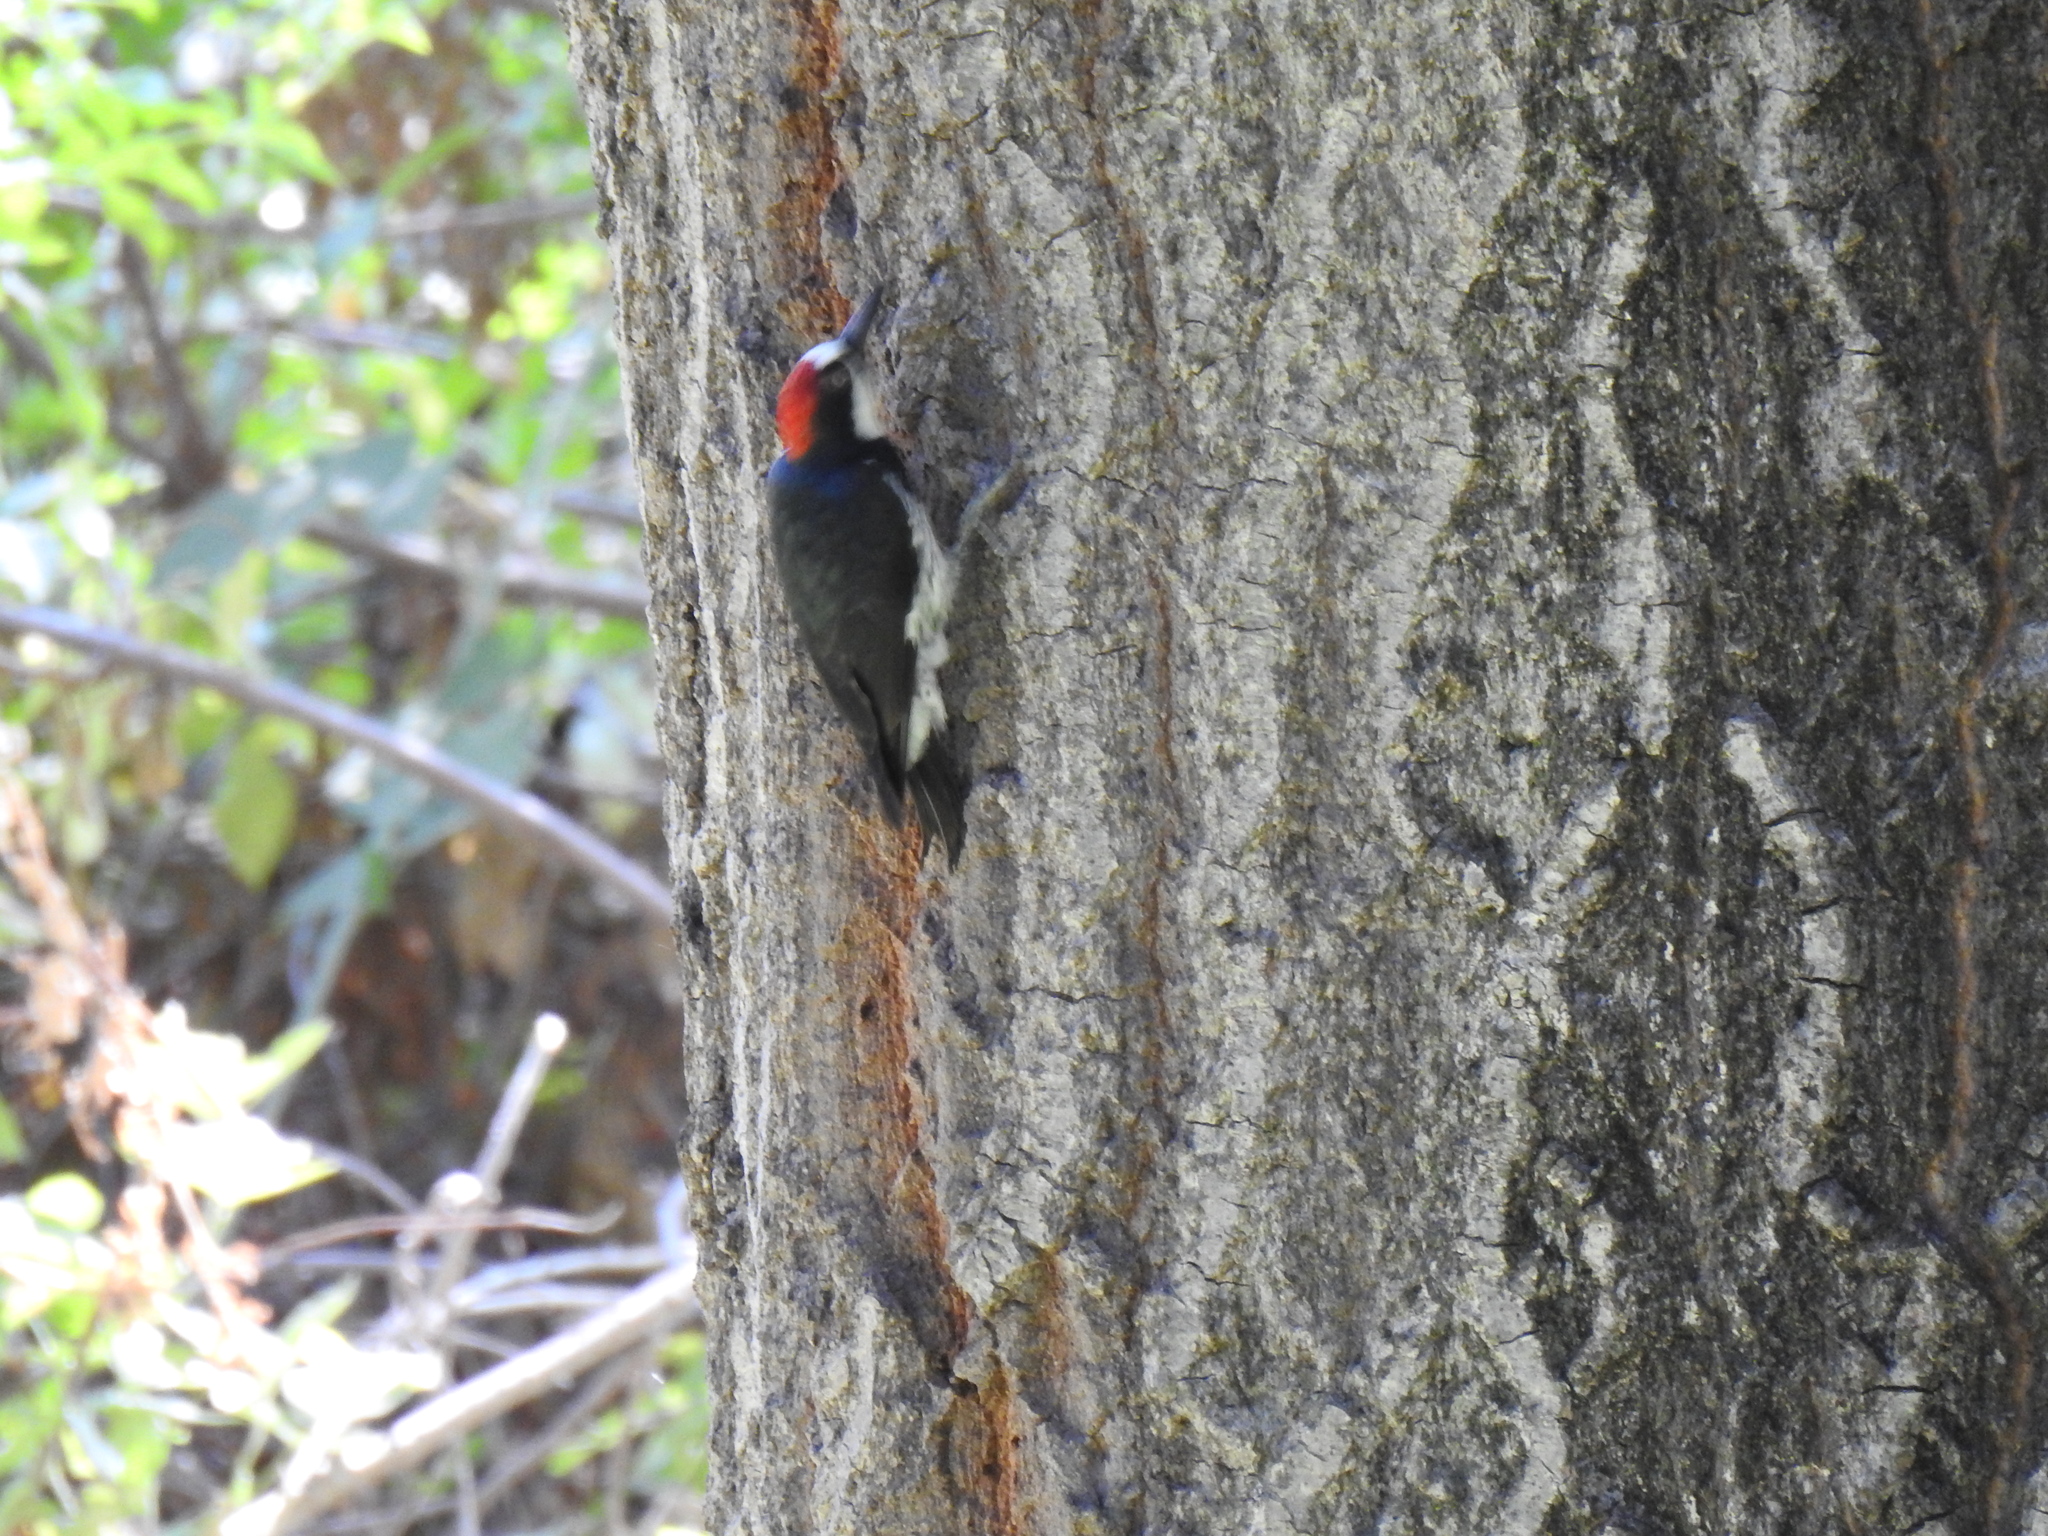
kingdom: Animalia
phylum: Chordata
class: Aves
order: Piciformes
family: Picidae
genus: Melanerpes
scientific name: Melanerpes formicivorus
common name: Acorn woodpecker
